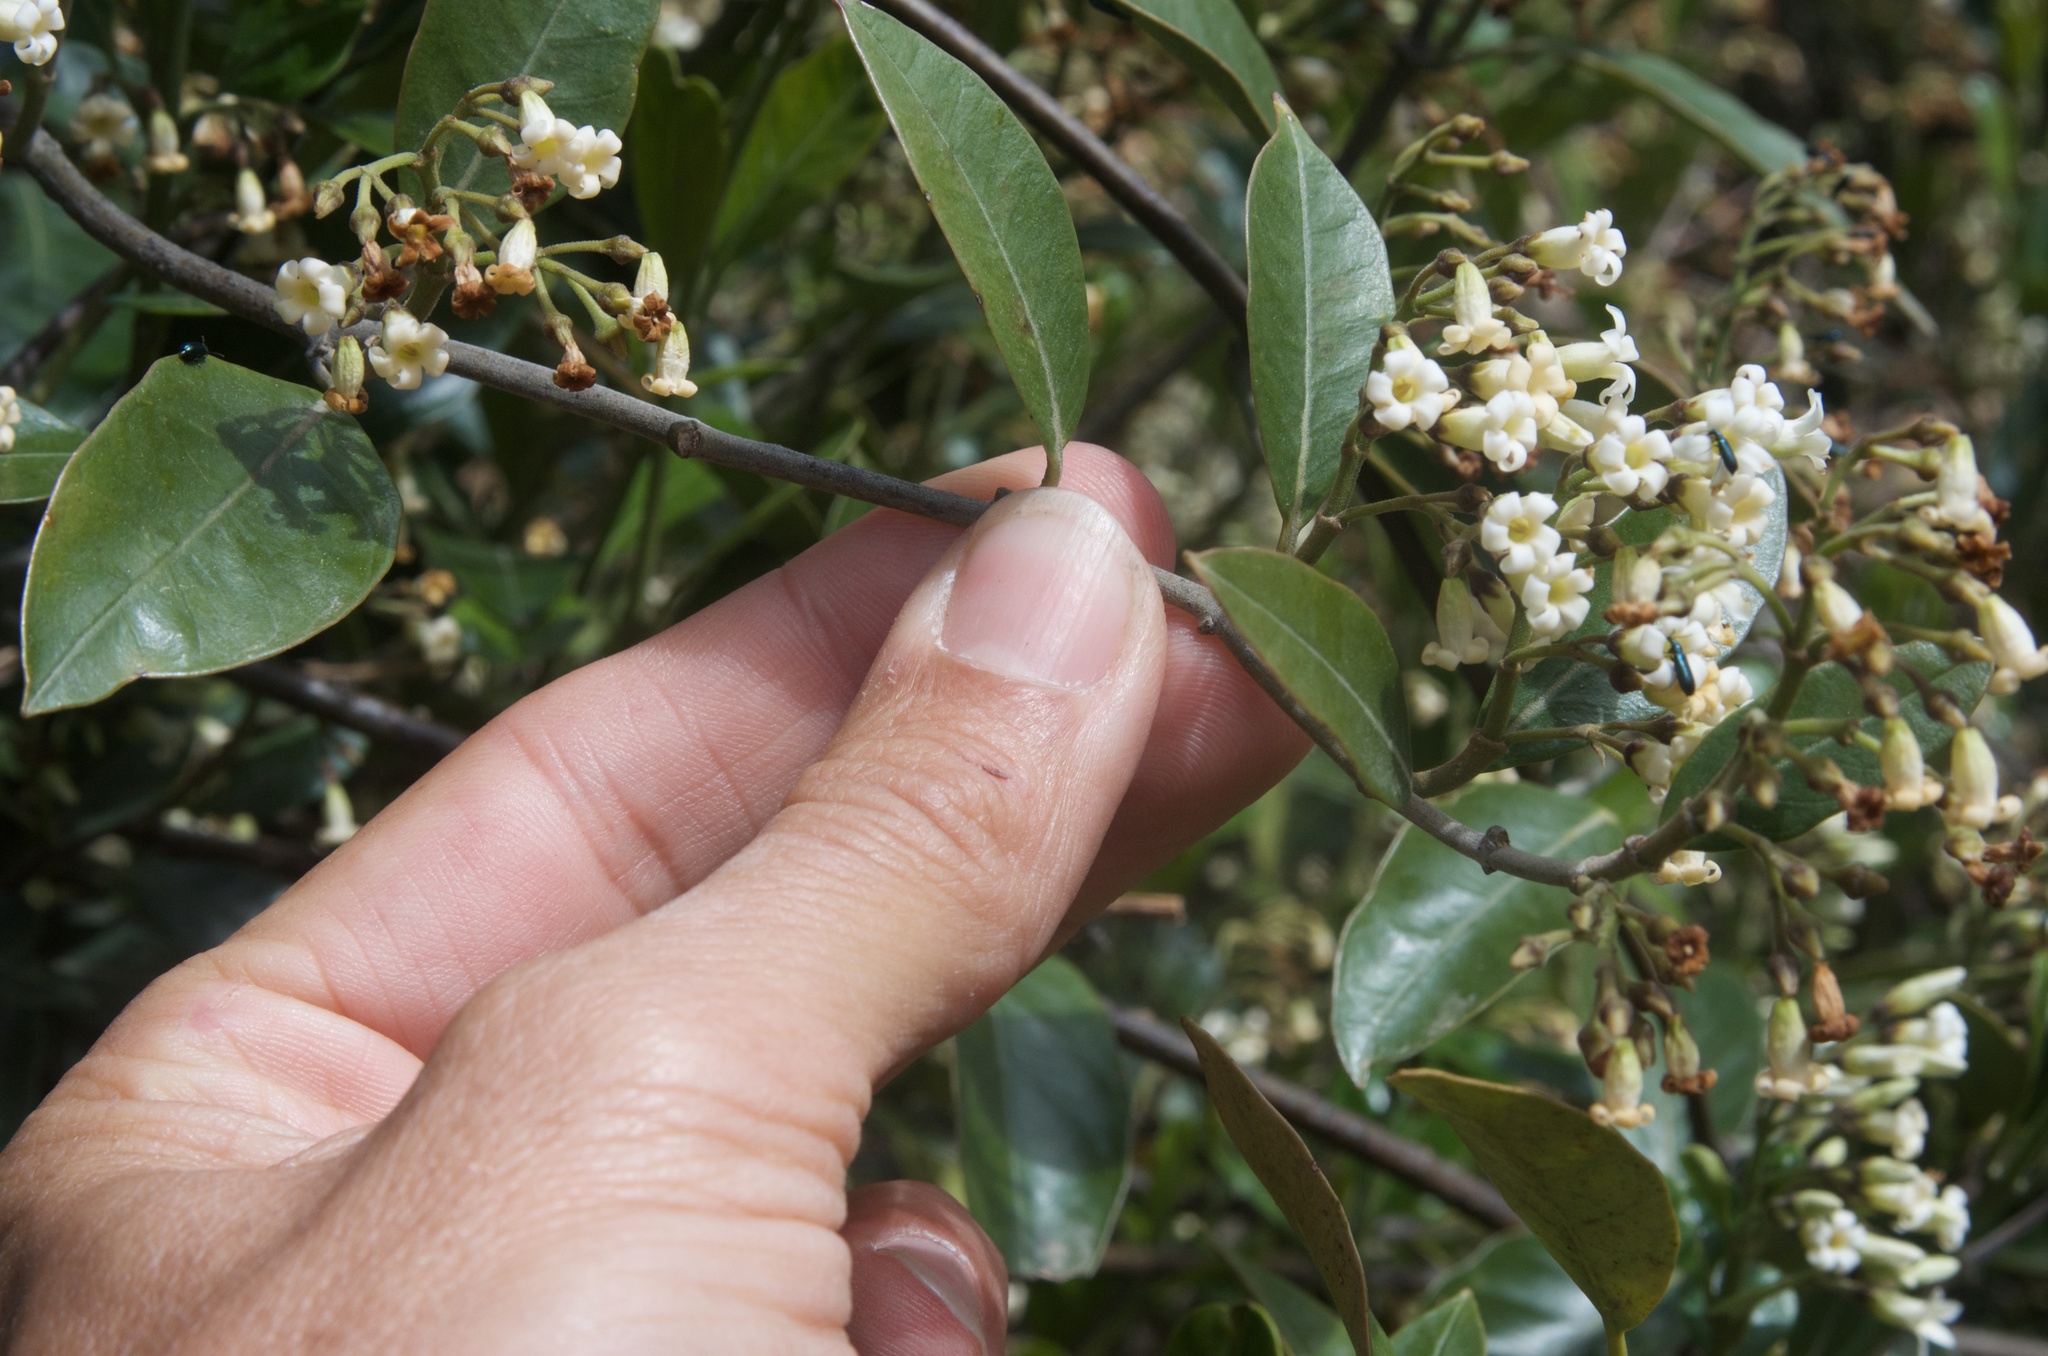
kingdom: Plantae
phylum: Tracheophyta
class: Magnoliopsida
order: Gentianales
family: Apocynaceae
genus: Parsonsia
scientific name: Parsonsia heterophylla
